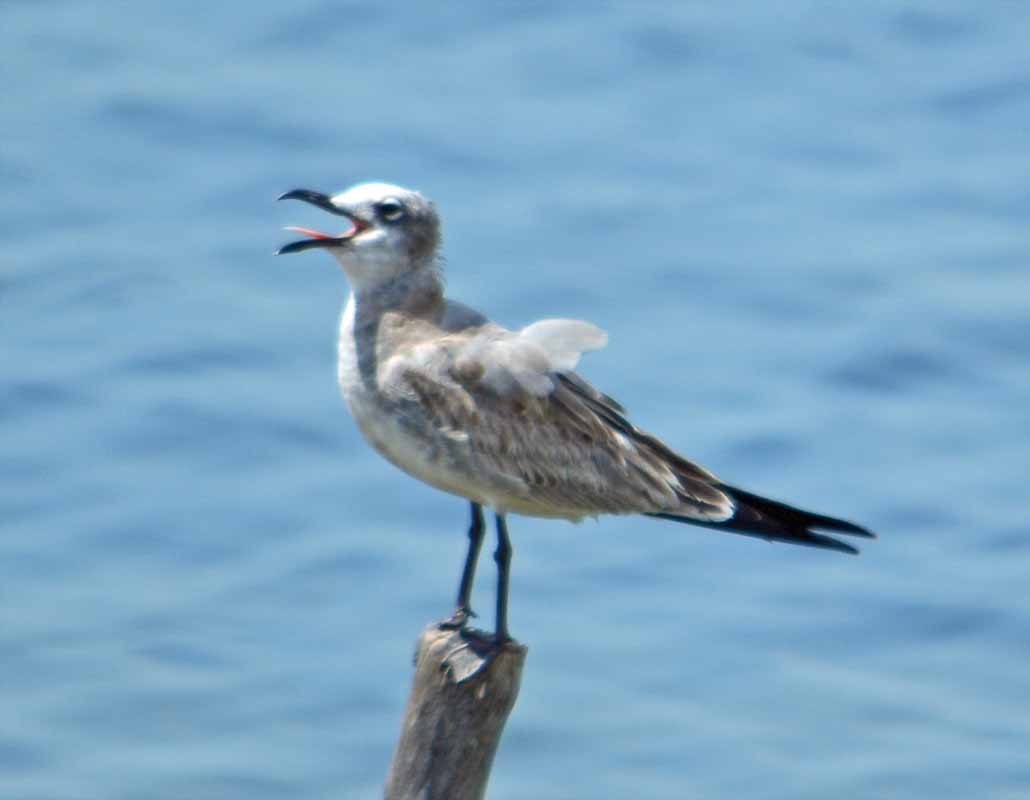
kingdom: Animalia
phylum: Chordata
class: Aves
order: Charadriiformes
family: Laridae
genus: Leucophaeus
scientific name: Leucophaeus atricilla
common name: Laughing gull
